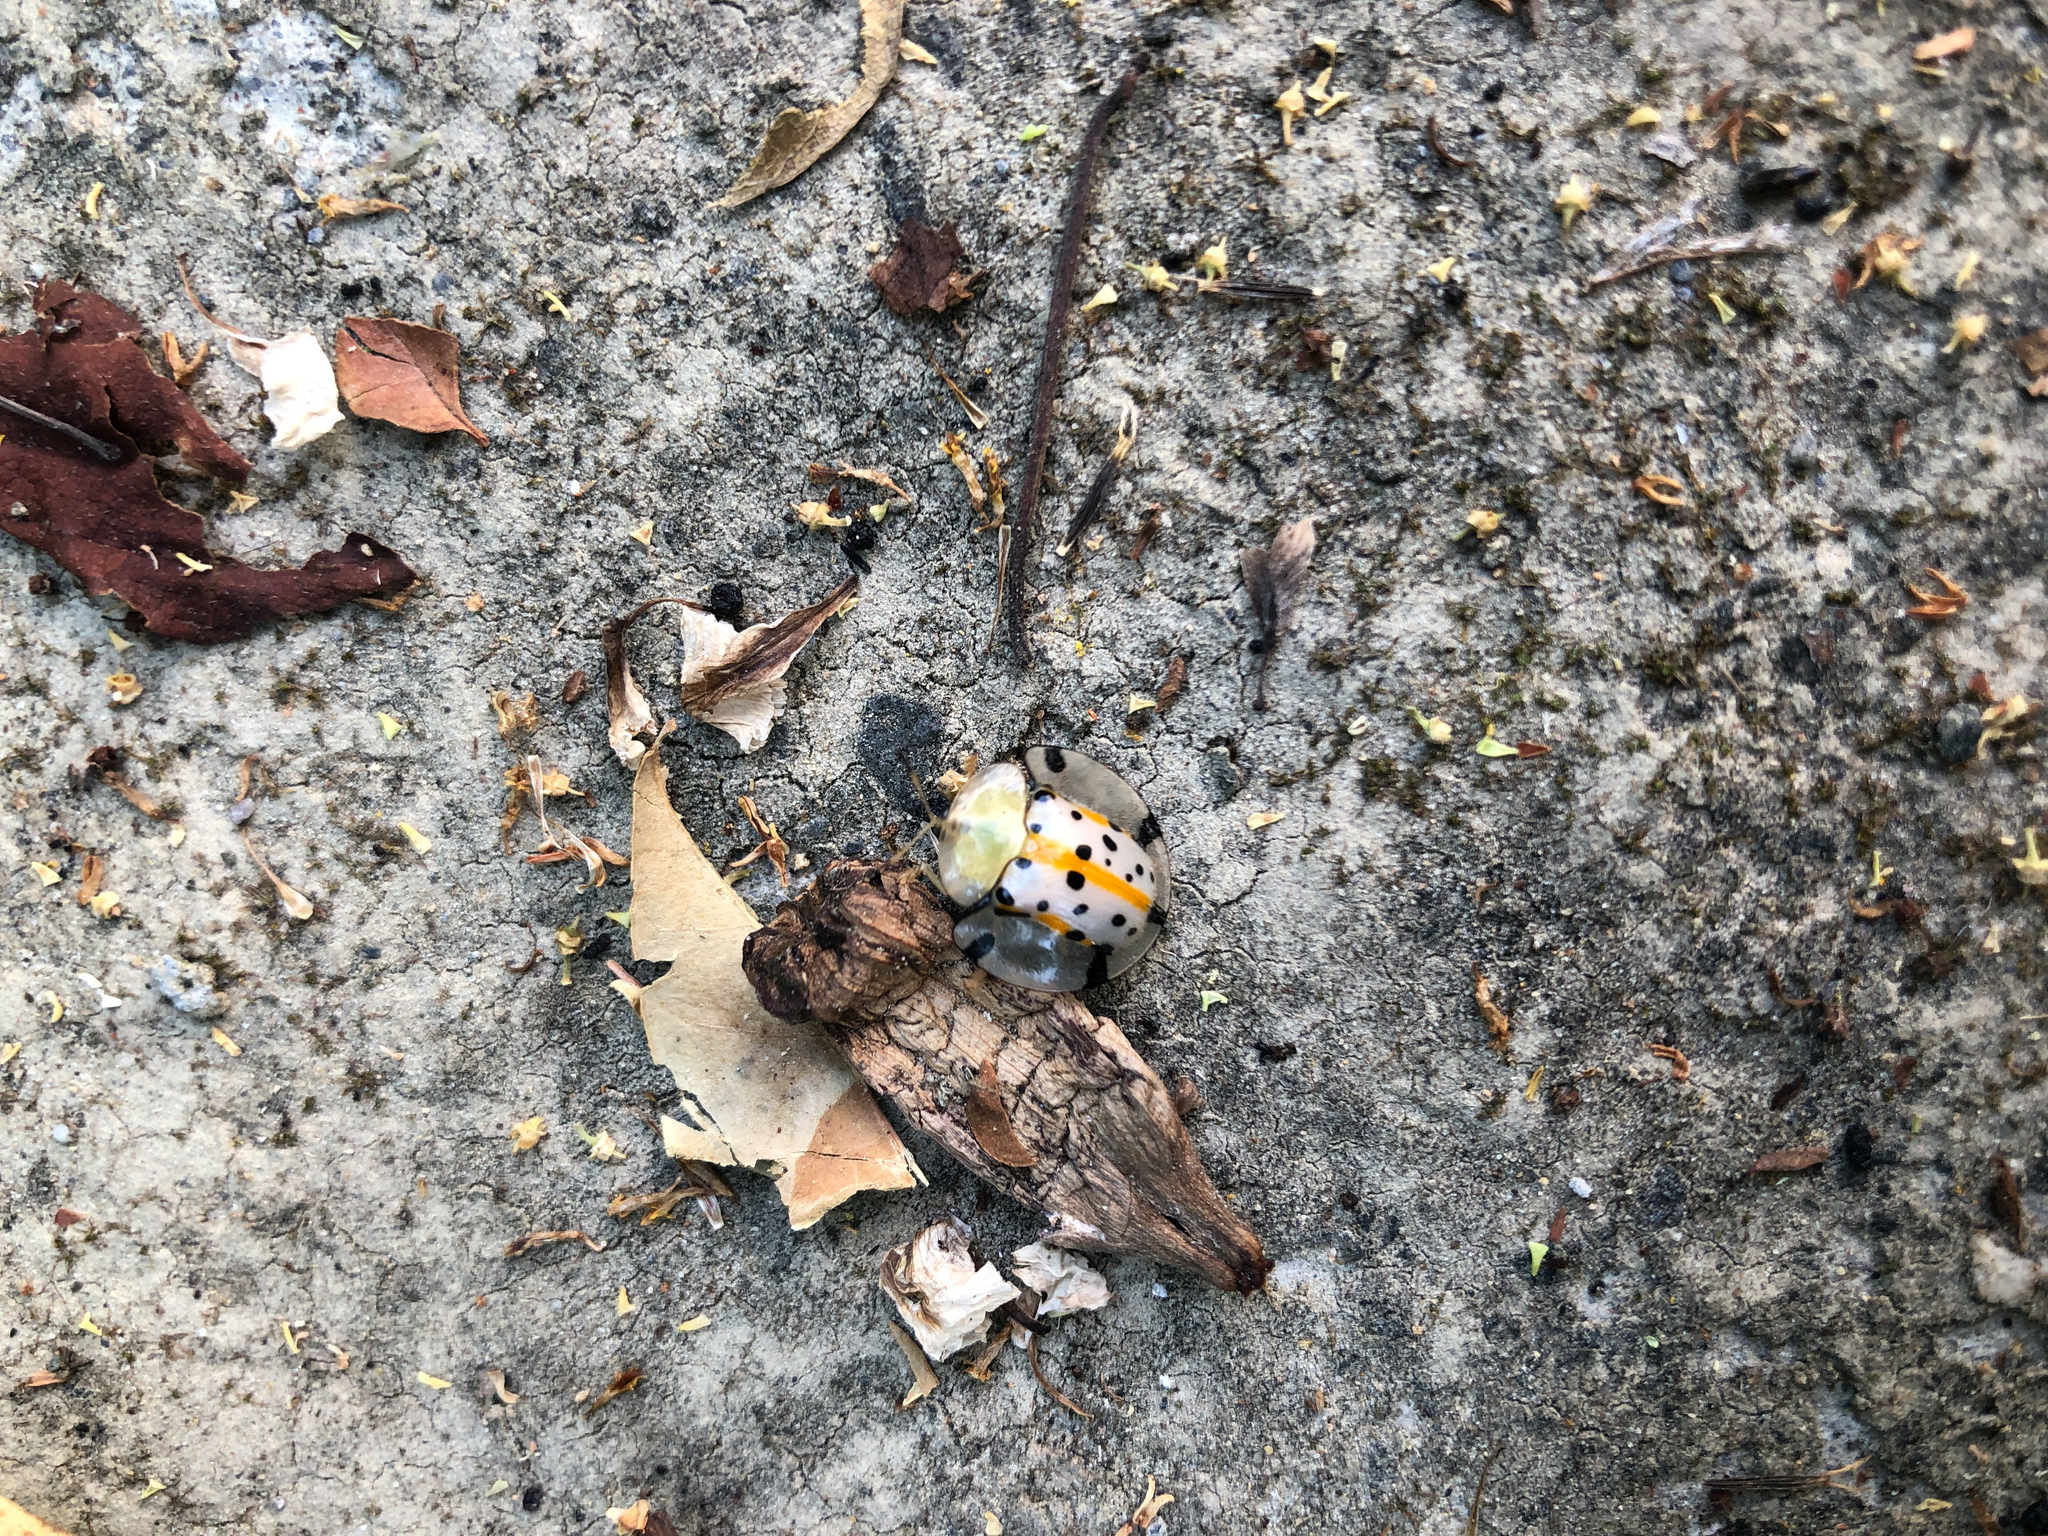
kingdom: Animalia
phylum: Arthropoda
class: Insecta
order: Coleoptera
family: Chrysomelidae
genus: Aspidimorpha
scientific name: Aspidimorpha miliaris
